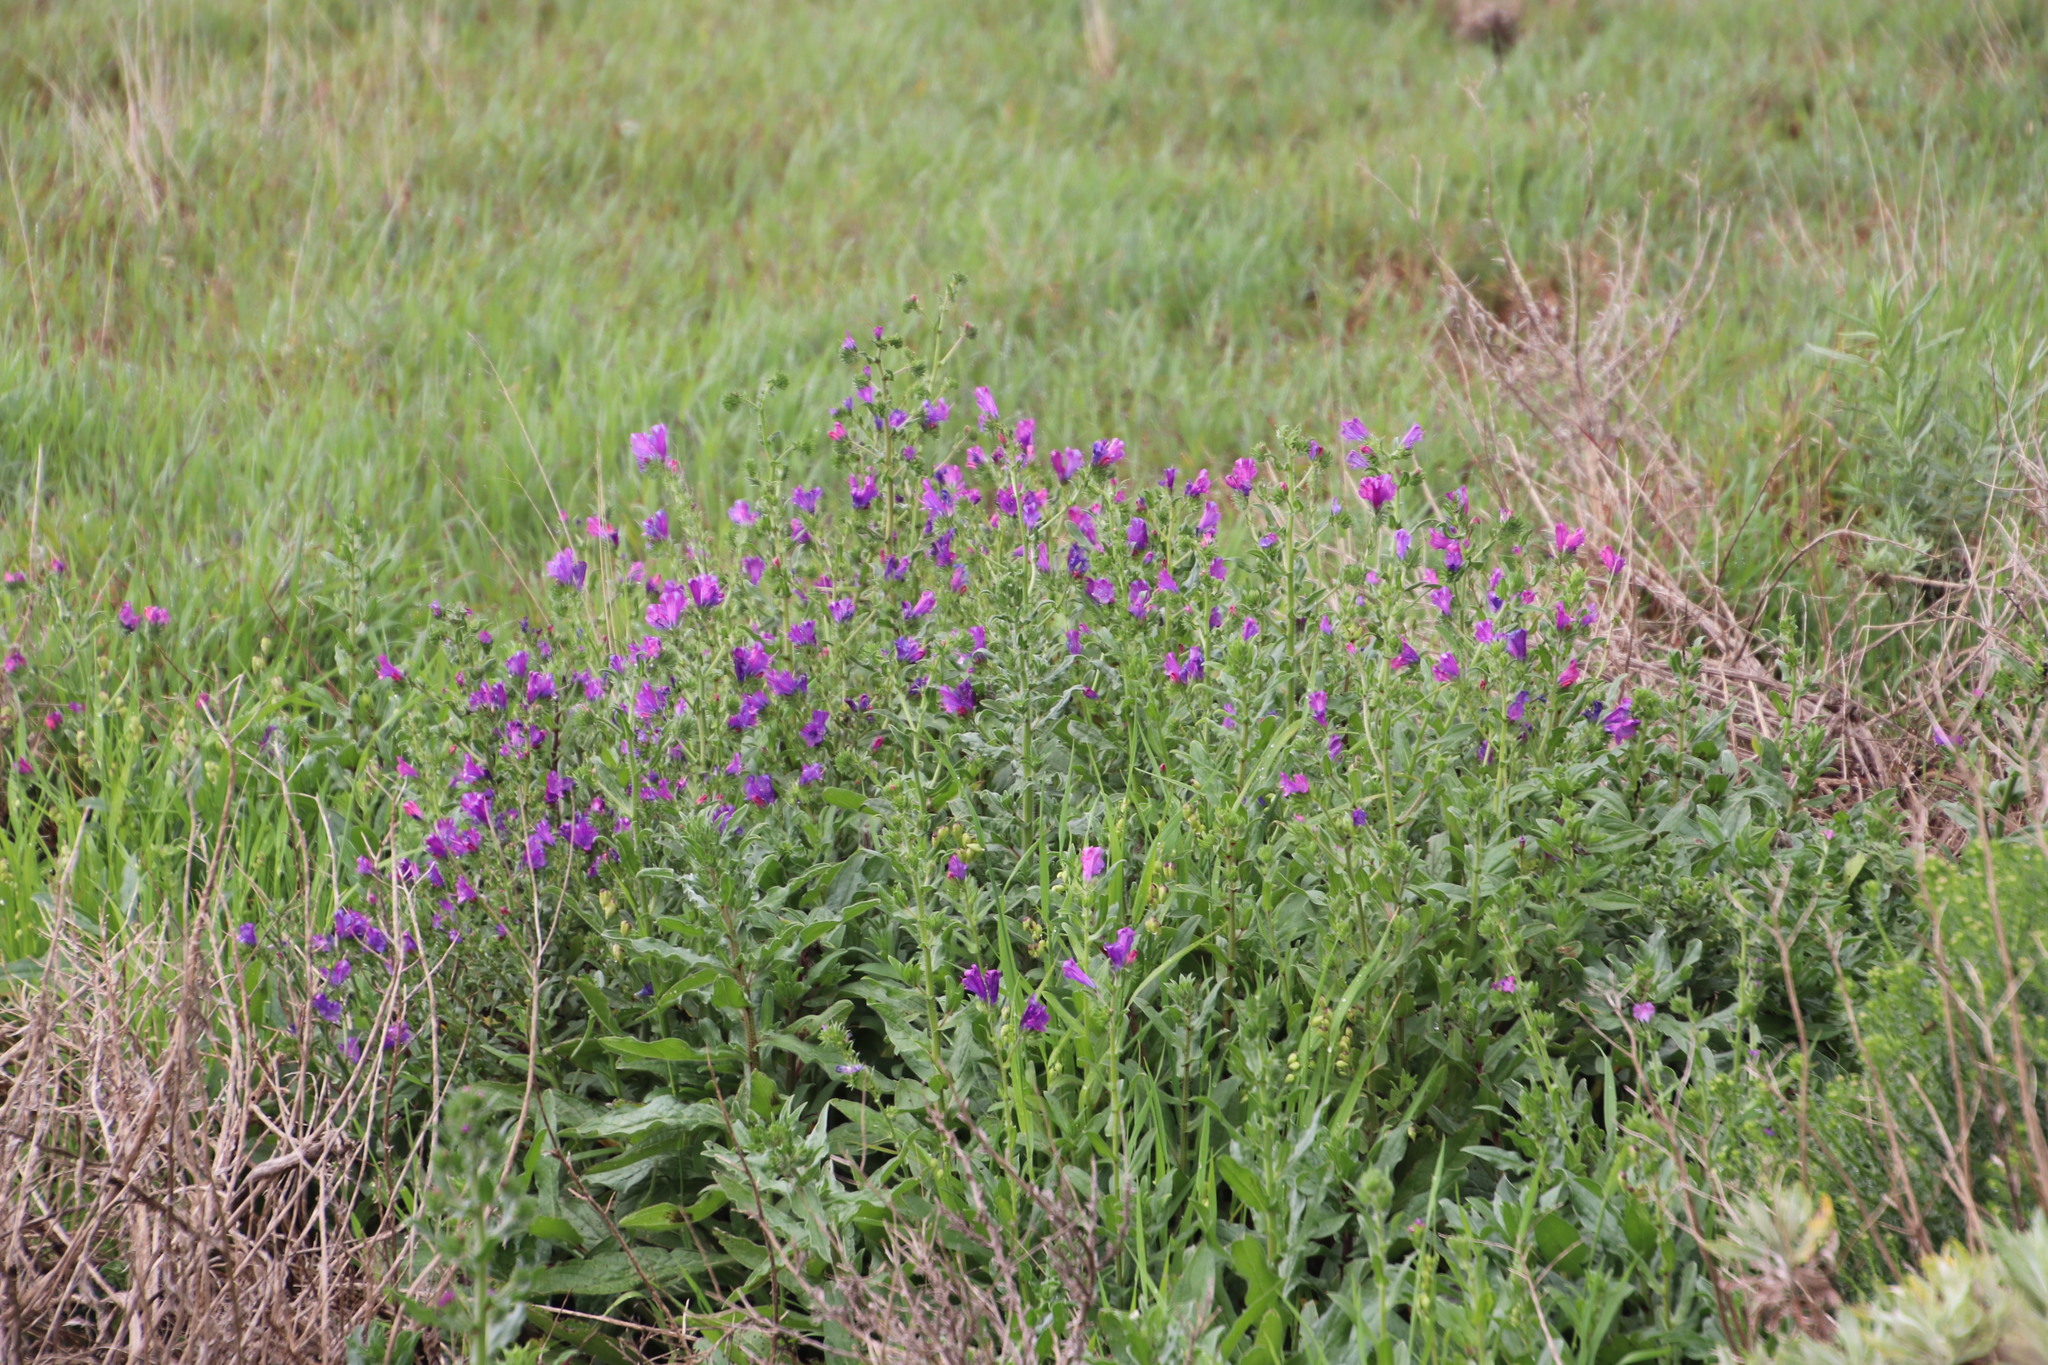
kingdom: Plantae
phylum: Tracheophyta
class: Magnoliopsida
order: Boraginales
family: Boraginaceae
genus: Echium
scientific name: Echium plantagineum
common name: Purple viper's-bugloss
